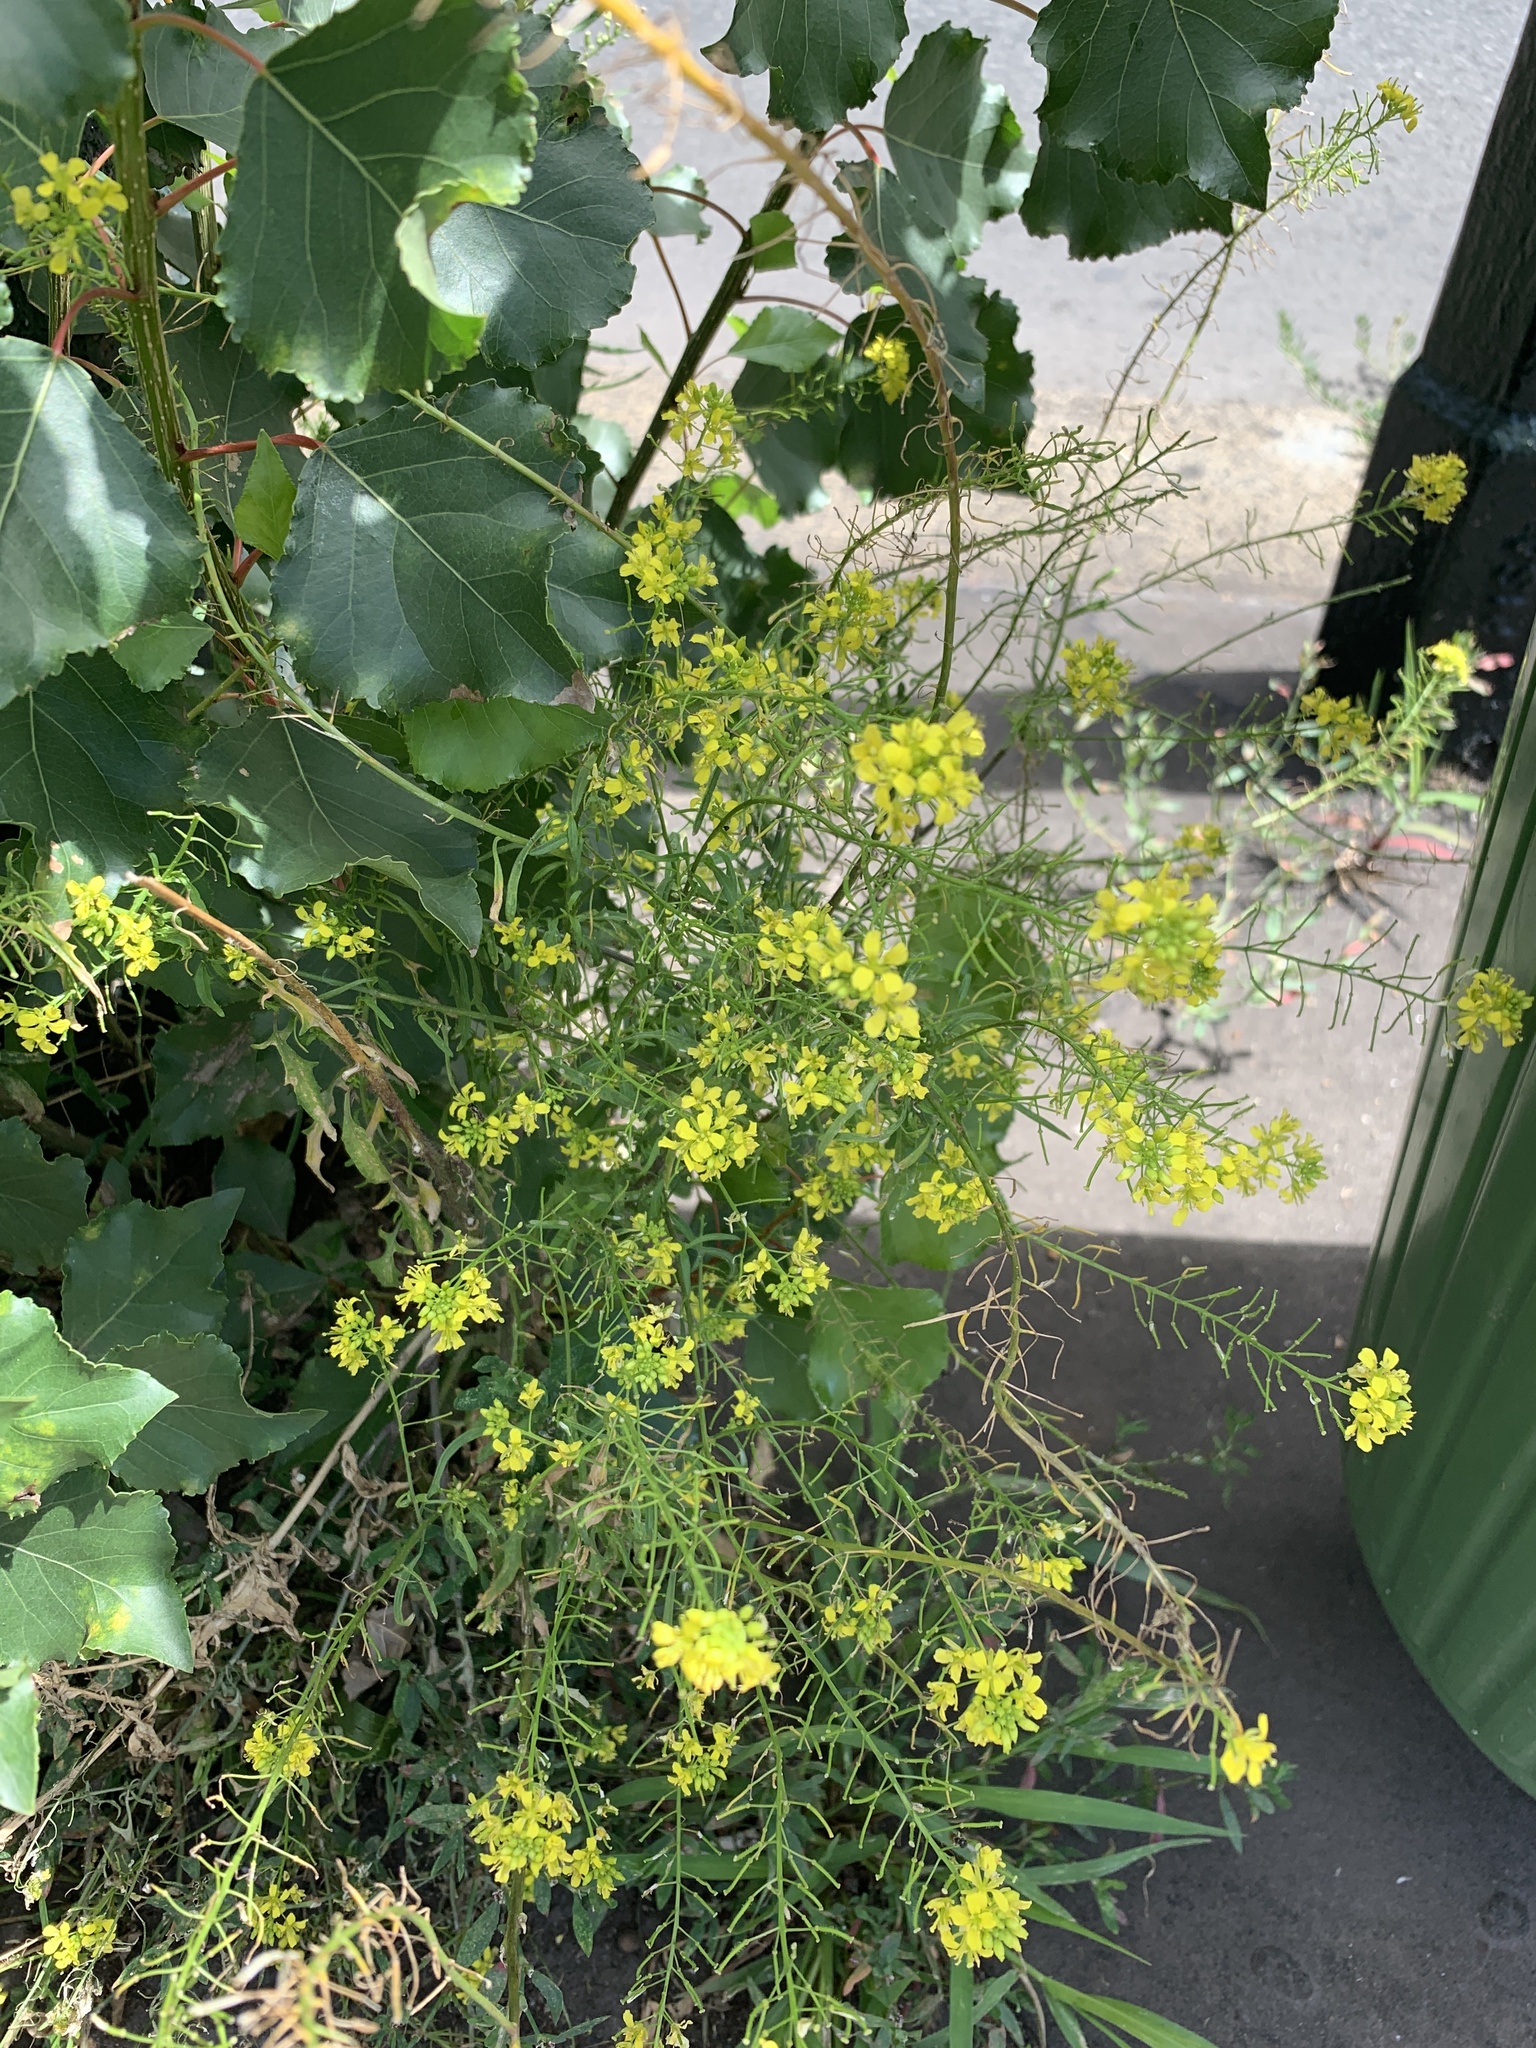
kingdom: Plantae
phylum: Tracheophyta
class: Magnoliopsida
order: Brassicales
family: Brassicaceae
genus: Sisymbrium
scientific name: Sisymbrium loeselii
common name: False london-rocket
